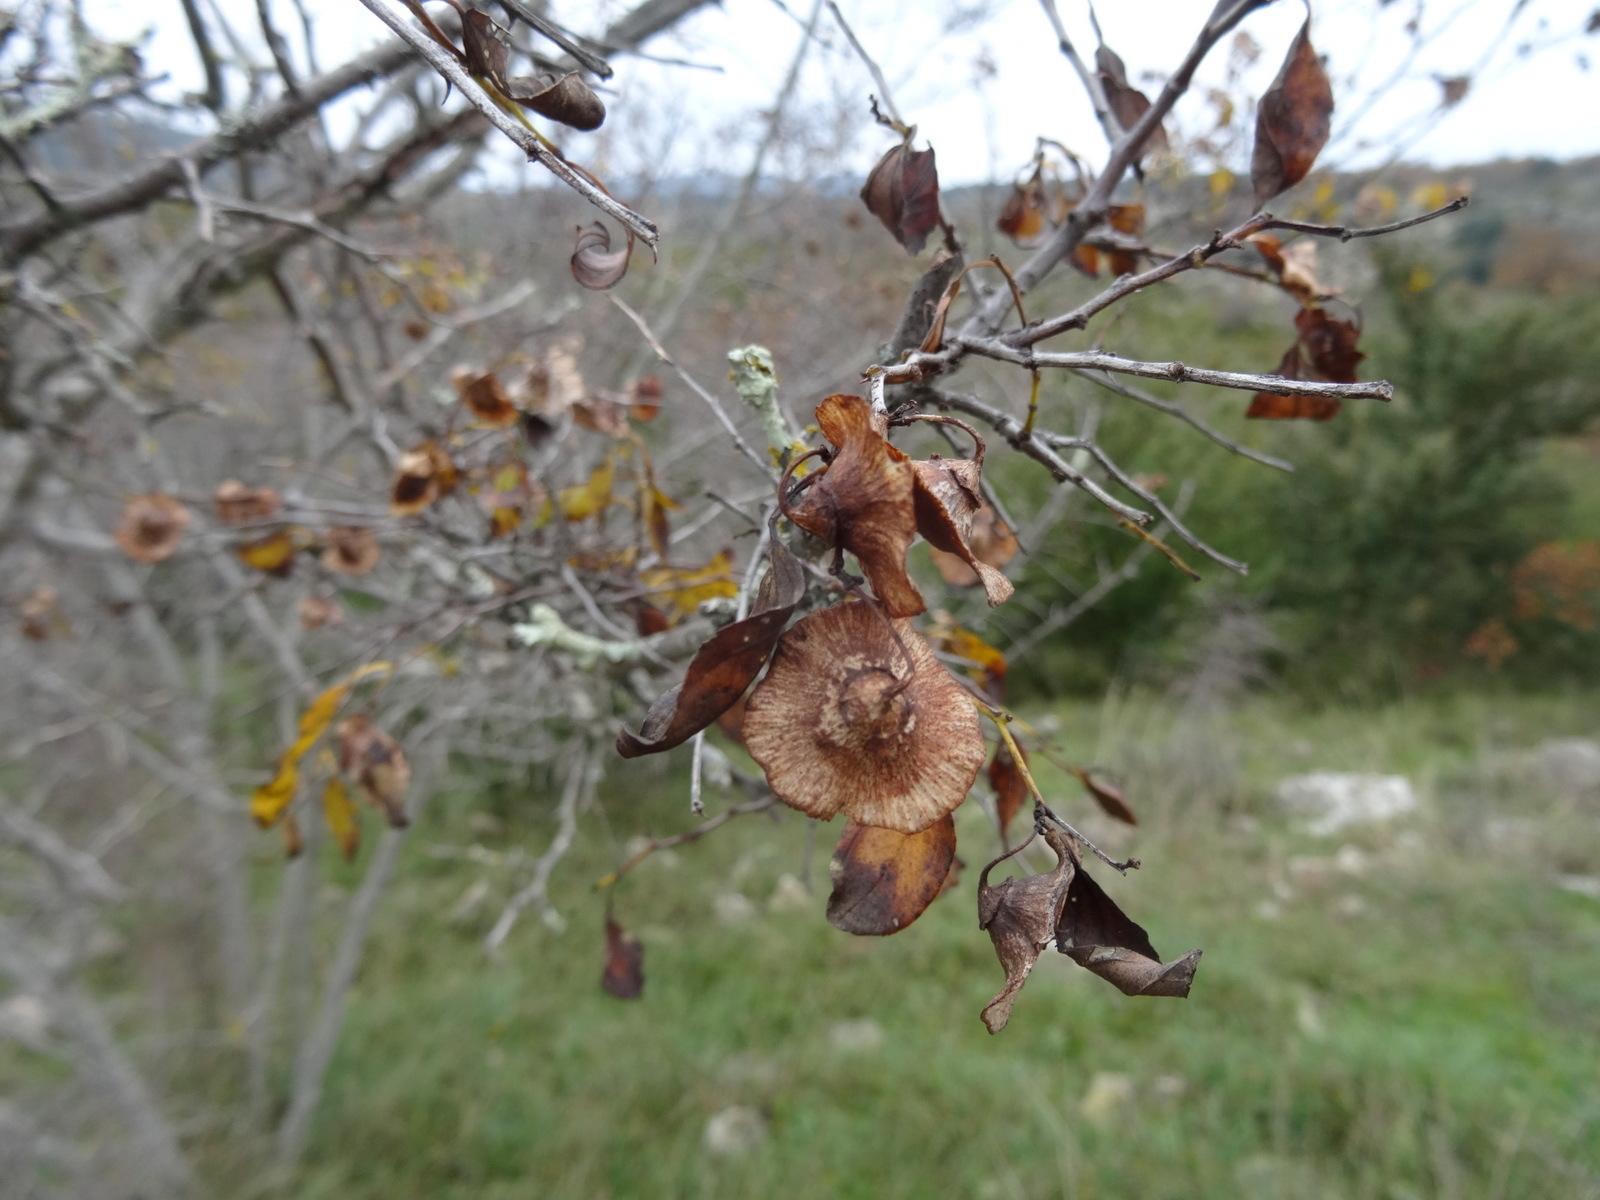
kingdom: Plantae
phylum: Tracheophyta
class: Magnoliopsida
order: Rosales
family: Rhamnaceae
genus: Paliurus
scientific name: Paliurus spina-christi
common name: Jeruselem thorn
